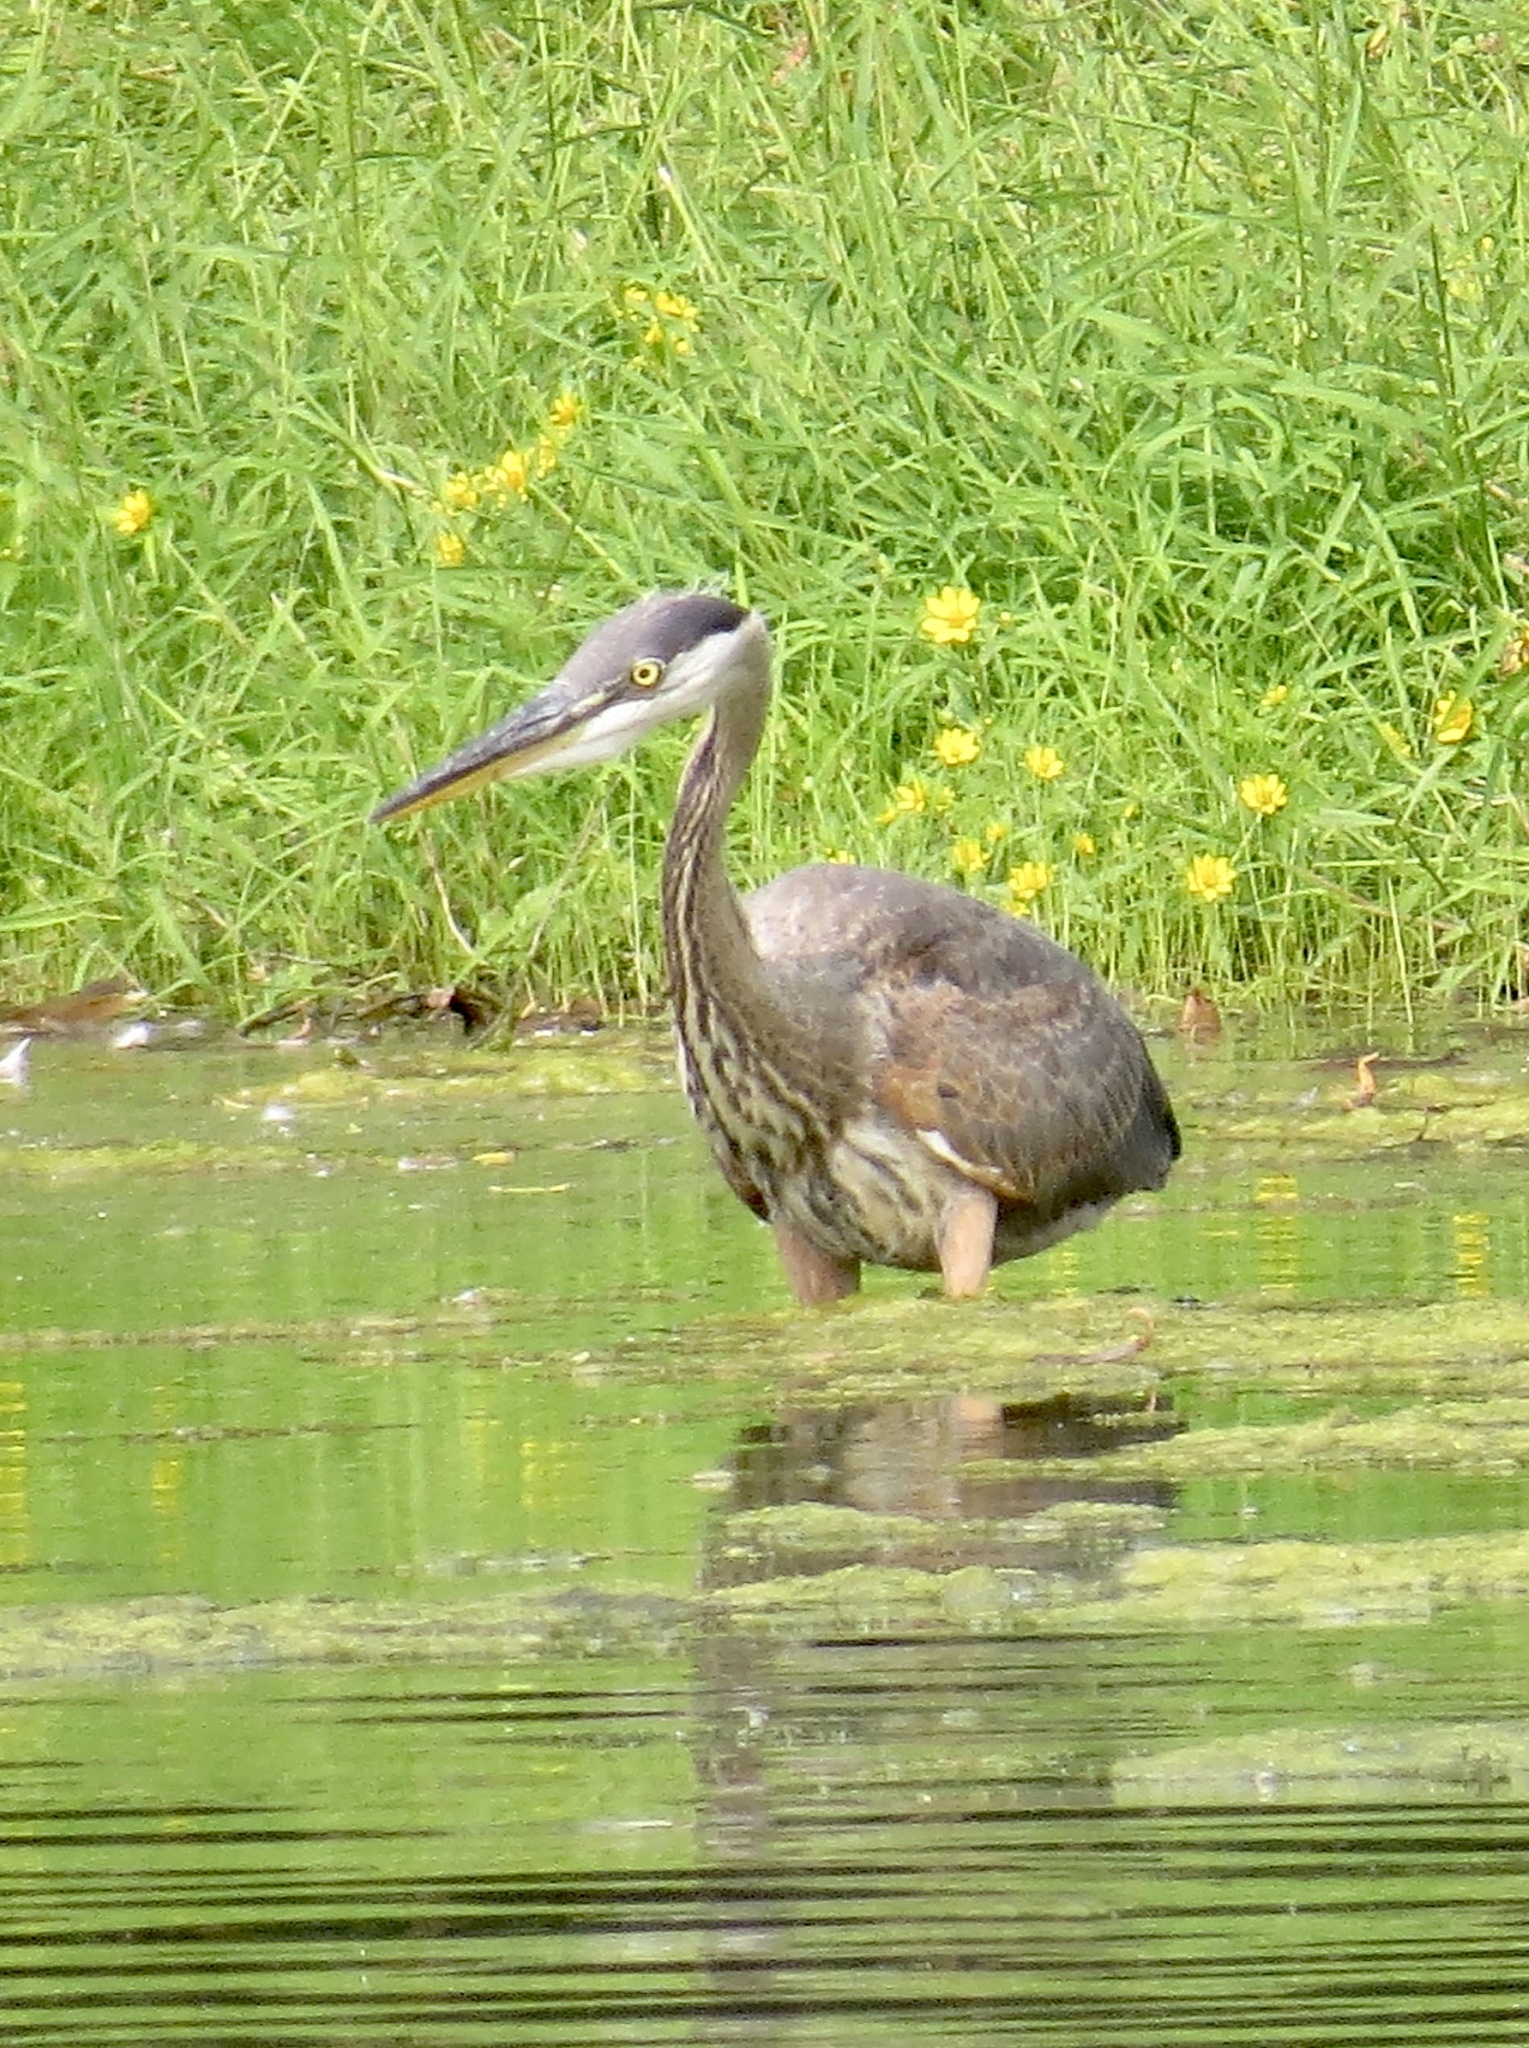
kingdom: Animalia
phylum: Chordata
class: Aves
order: Pelecaniformes
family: Ardeidae
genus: Ardea
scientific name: Ardea herodias
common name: Great blue heron
